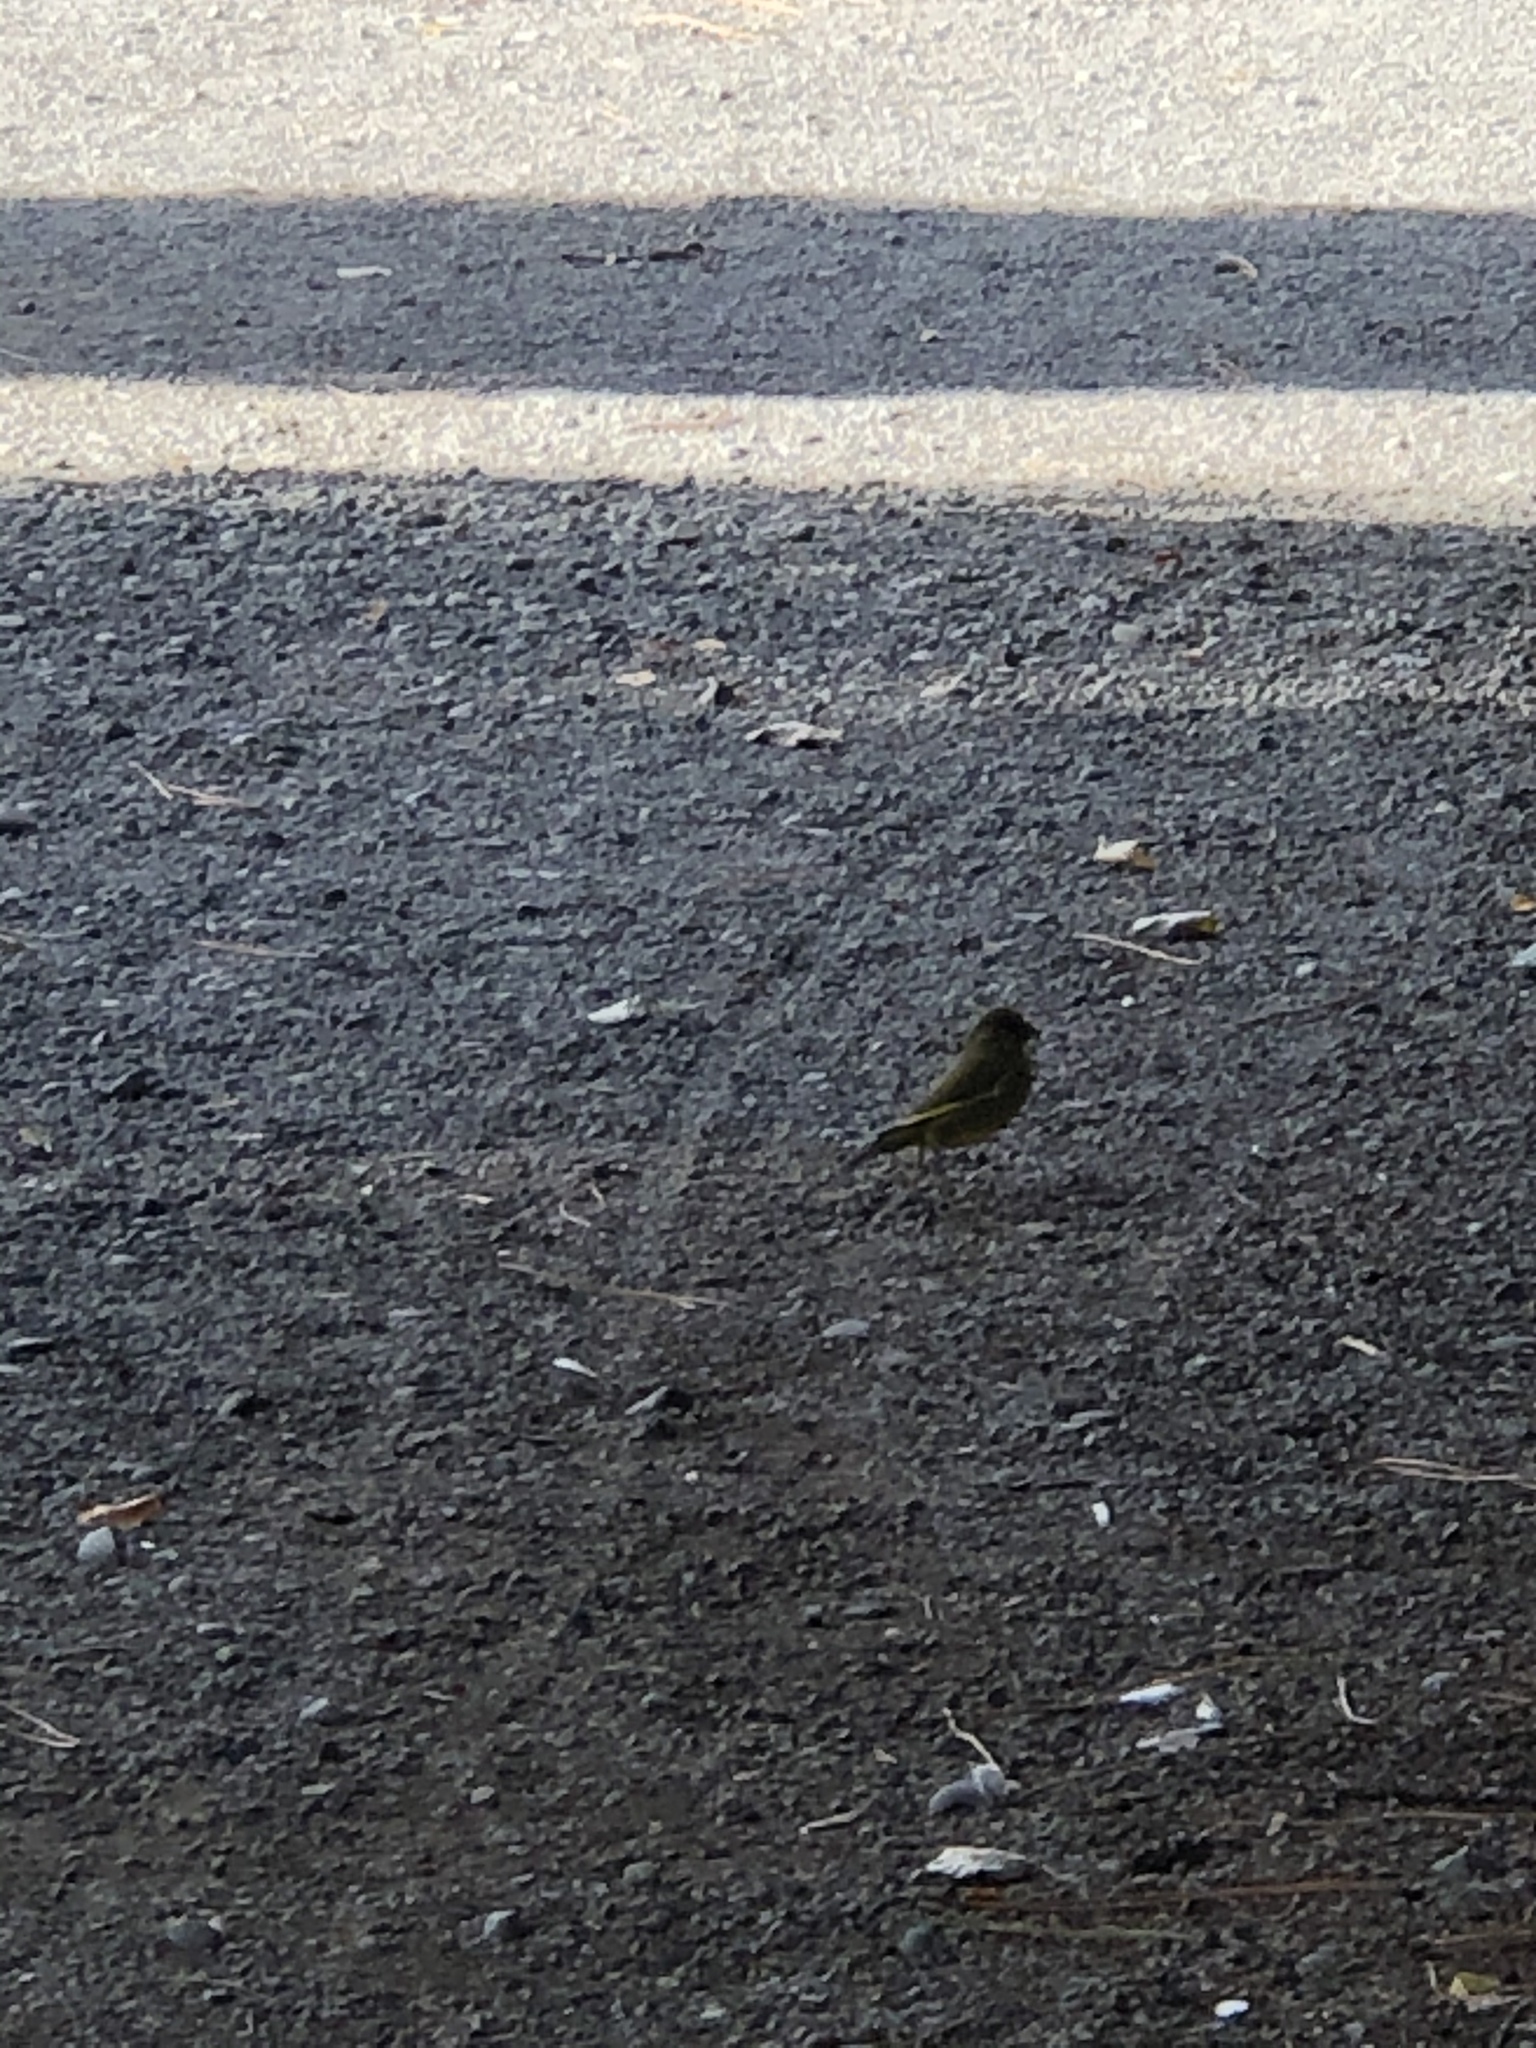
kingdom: Plantae
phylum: Tracheophyta
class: Liliopsida
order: Poales
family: Poaceae
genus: Chloris
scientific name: Chloris chloris
